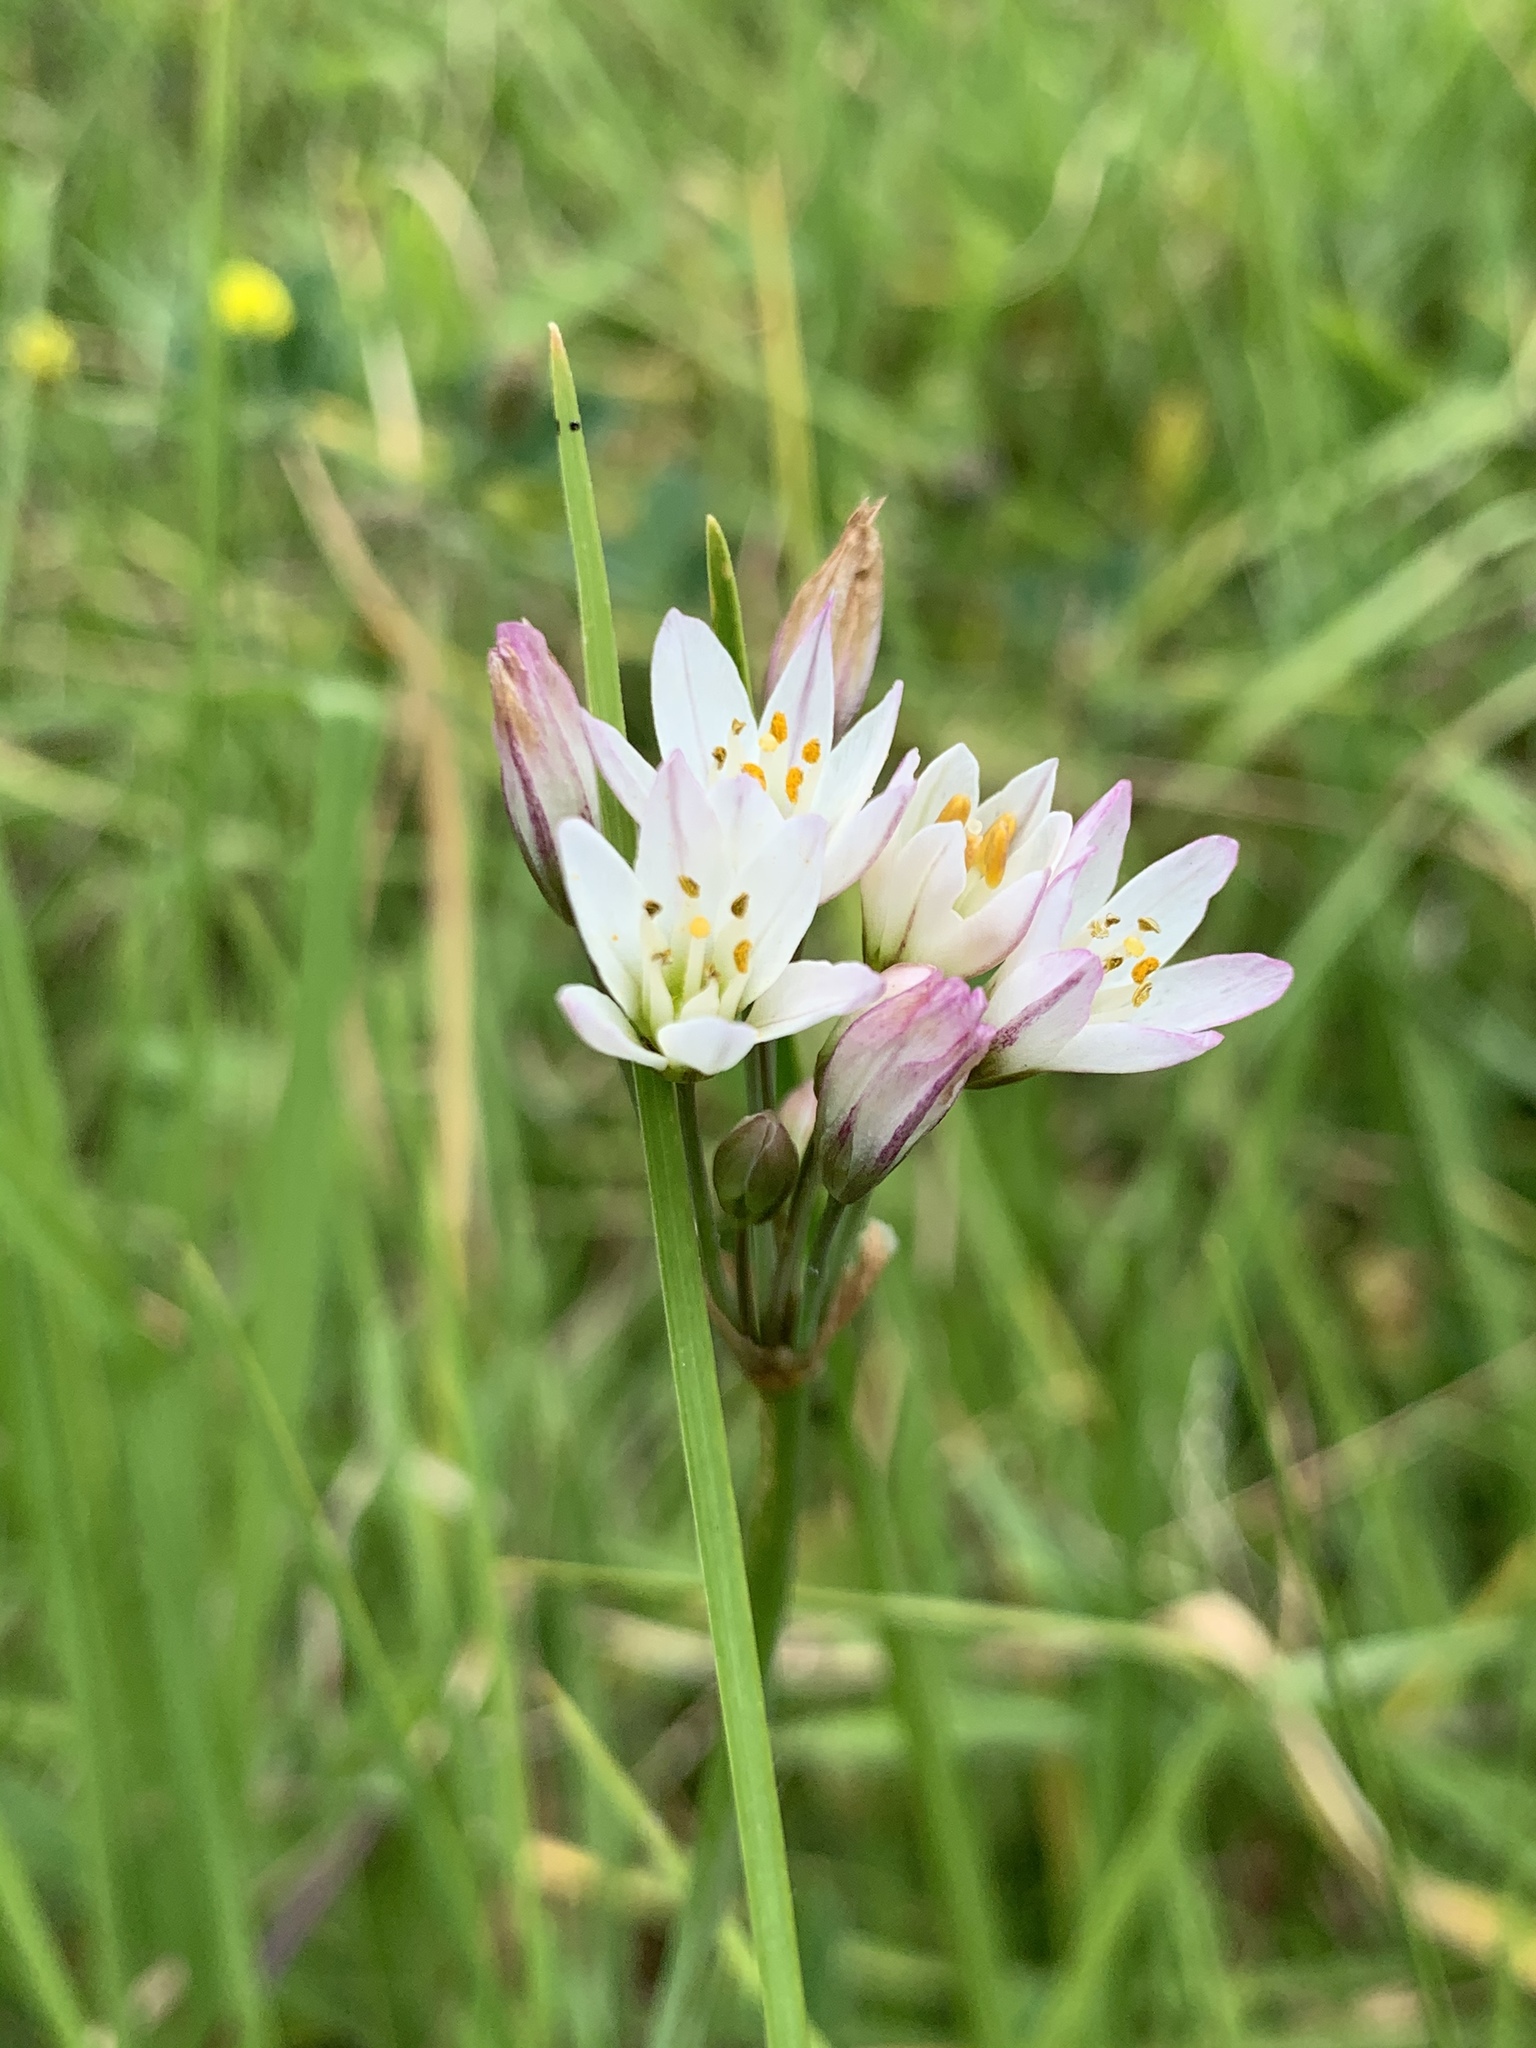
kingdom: Plantae
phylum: Tracheophyta
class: Liliopsida
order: Asparagales
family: Amaryllidaceae
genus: Nothoscordum
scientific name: Nothoscordum gracile
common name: Slender false garlic
